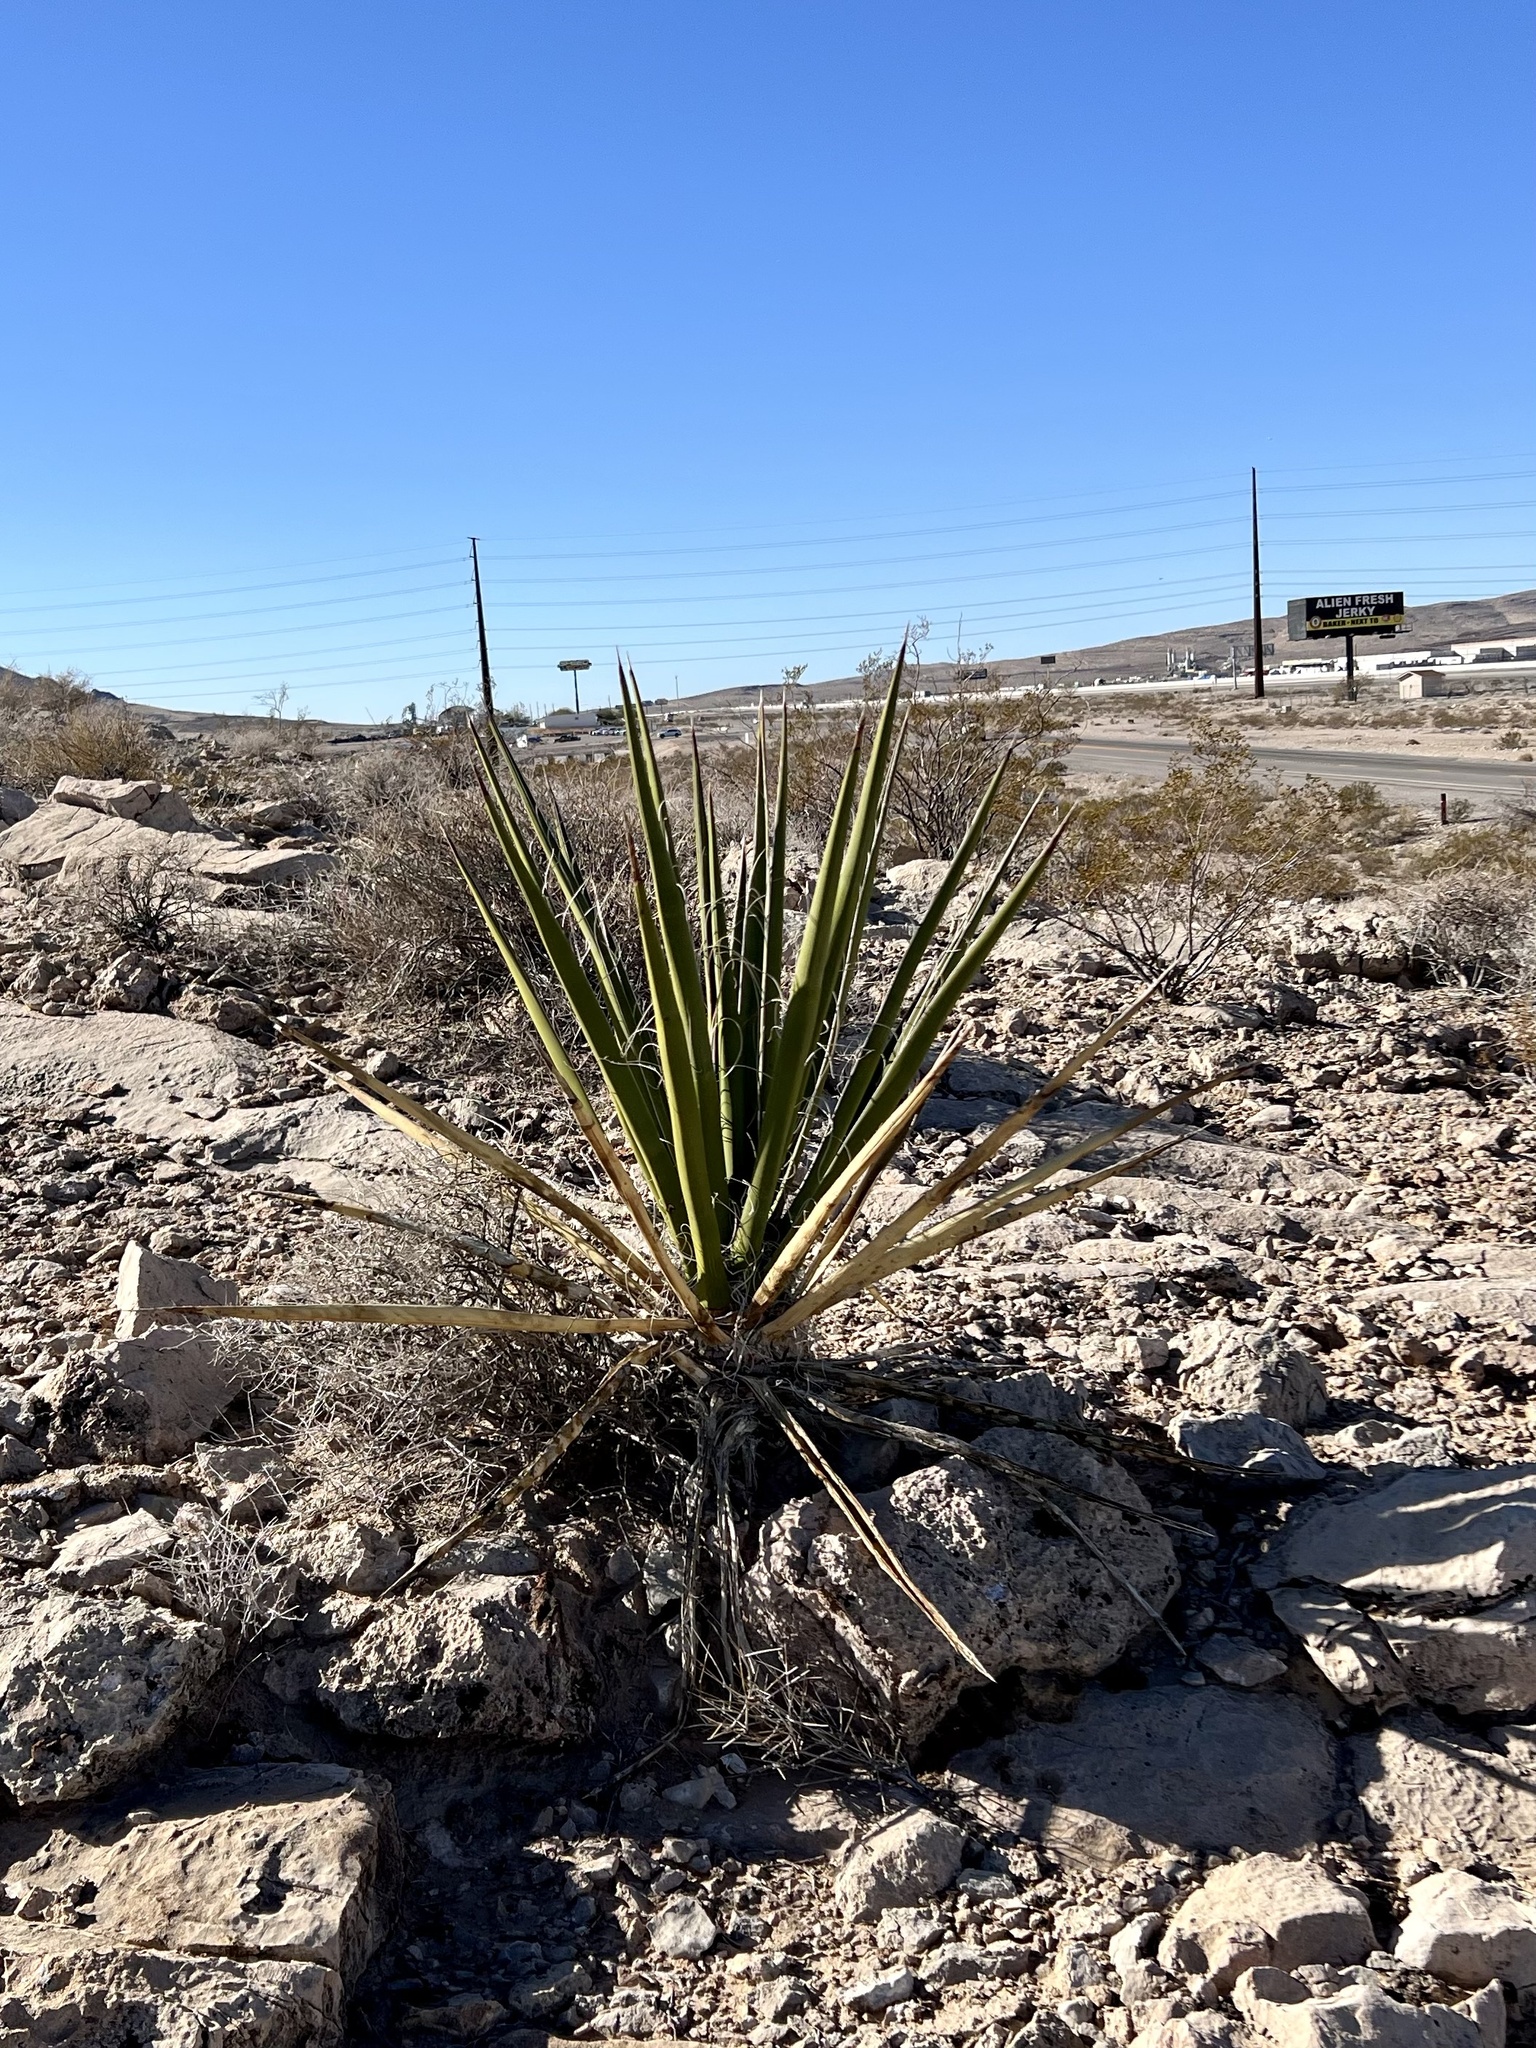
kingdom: Plantae
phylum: Tracheophyta
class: Liliopsida
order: Asparagales
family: Asparagaceae
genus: Yucca
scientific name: Yucca schidigera
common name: Mojave yucca
